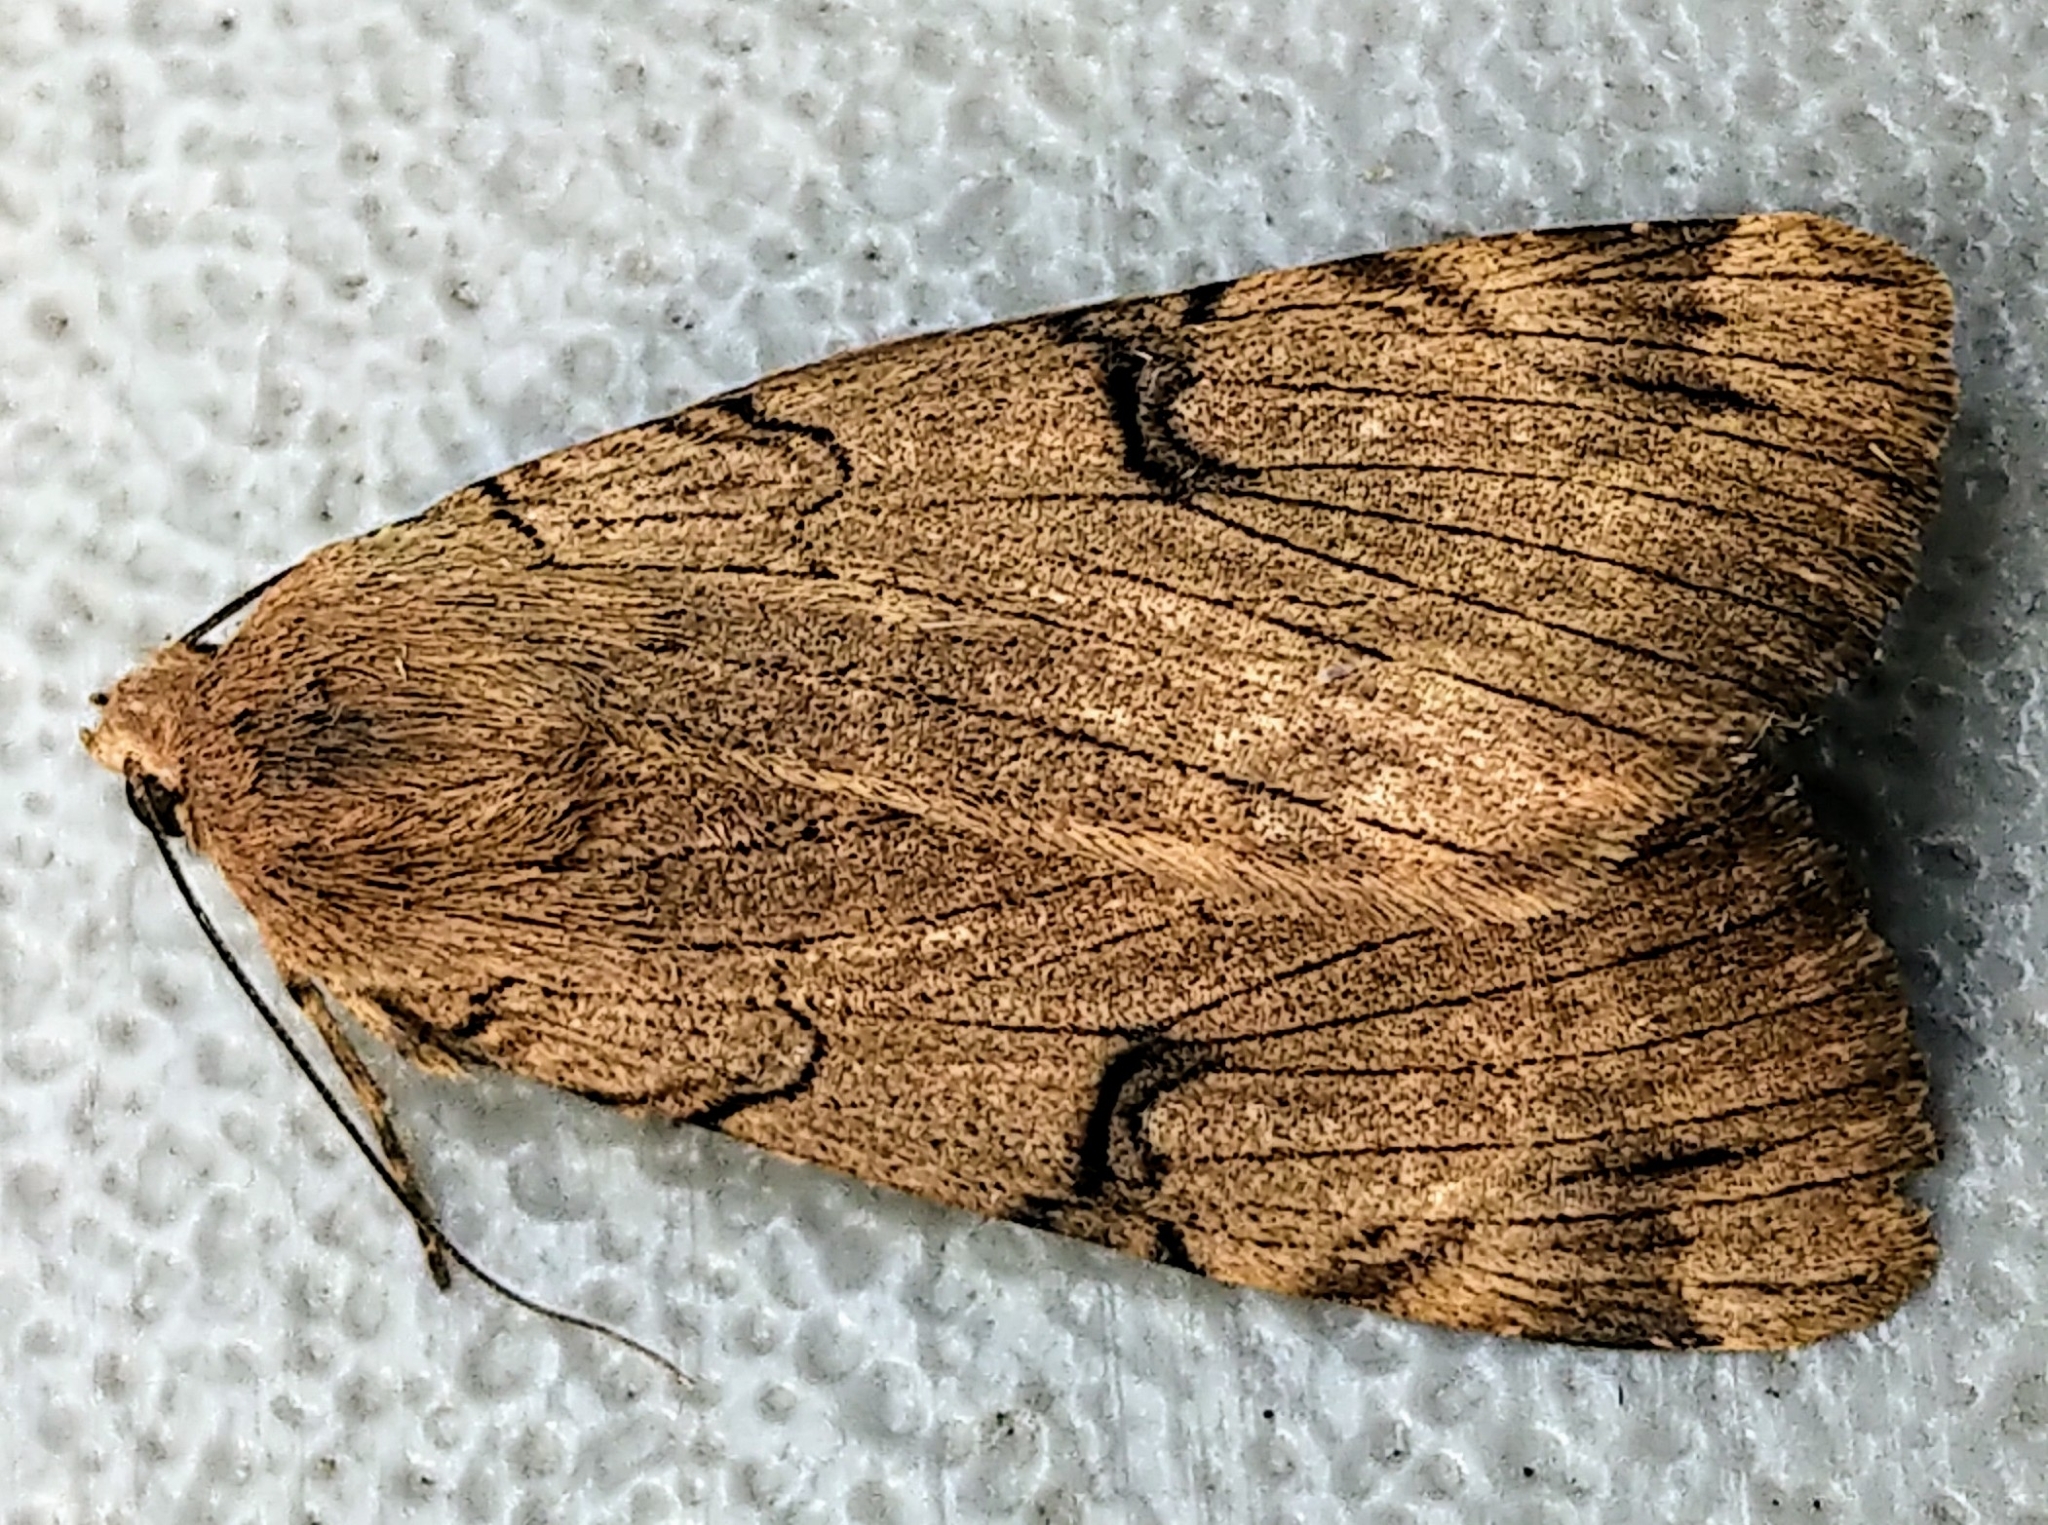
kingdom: Animalia
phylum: Arthropoda
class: Insecta
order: Lepidoptera
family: Erebidae
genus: Drasteria
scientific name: Drasteria ochracea
